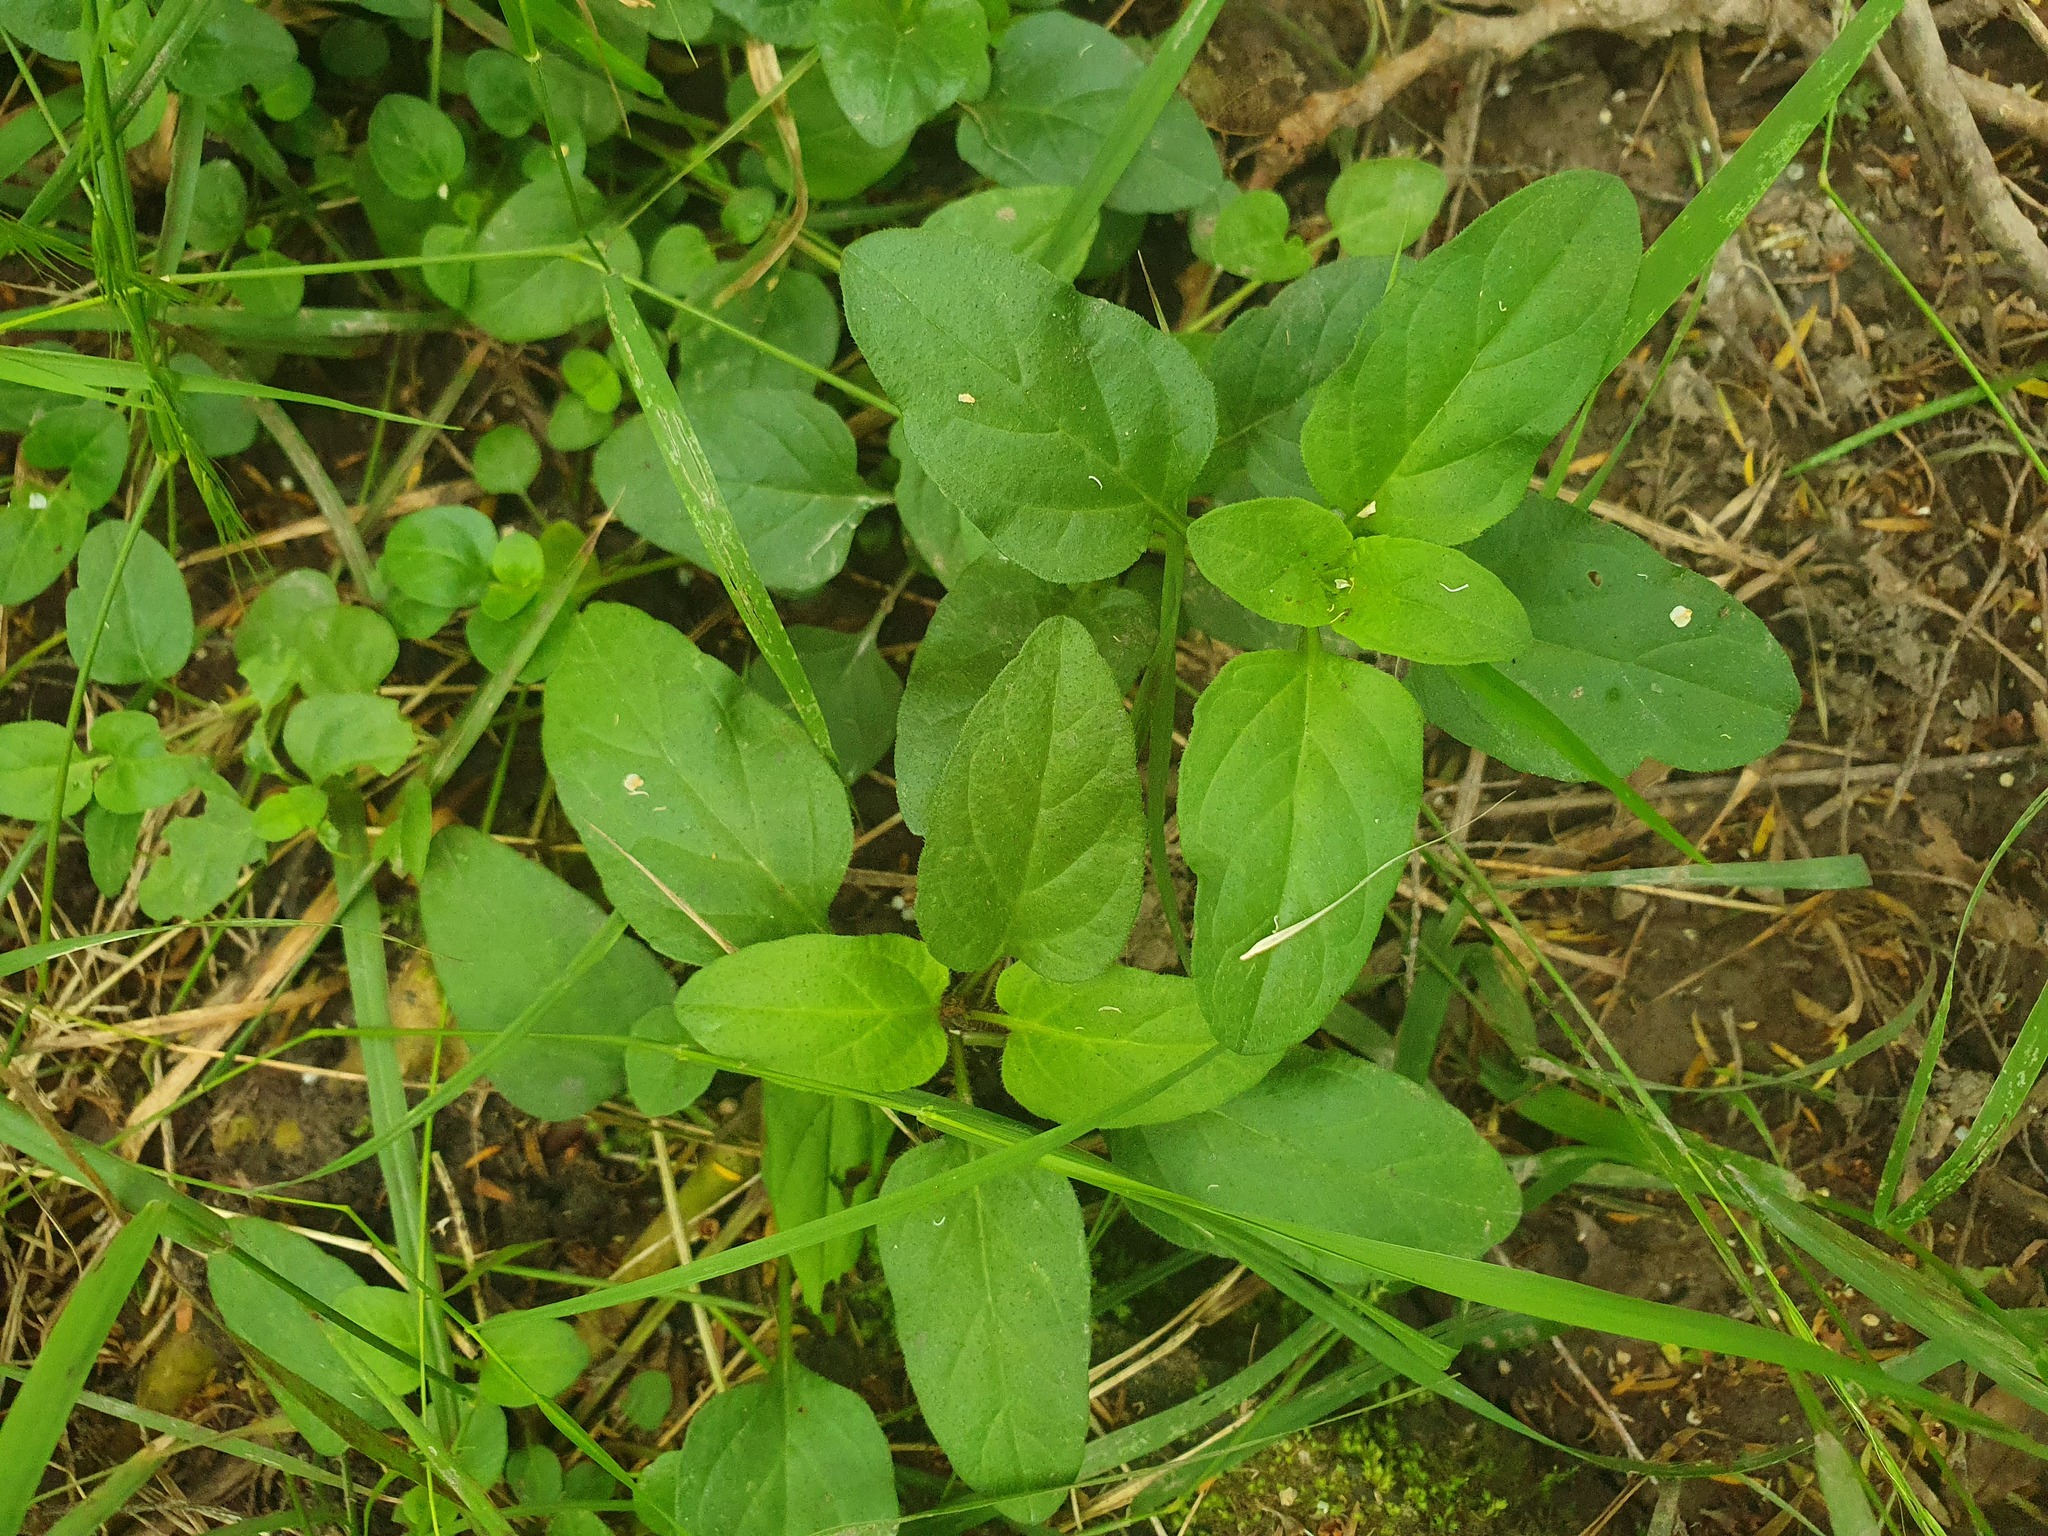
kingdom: Plantae
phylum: Tracheophyta
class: Magnoliopsida
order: Lamiales
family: Lamiaceae
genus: Prunella
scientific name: Prunella vulgaris
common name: Heal-all
